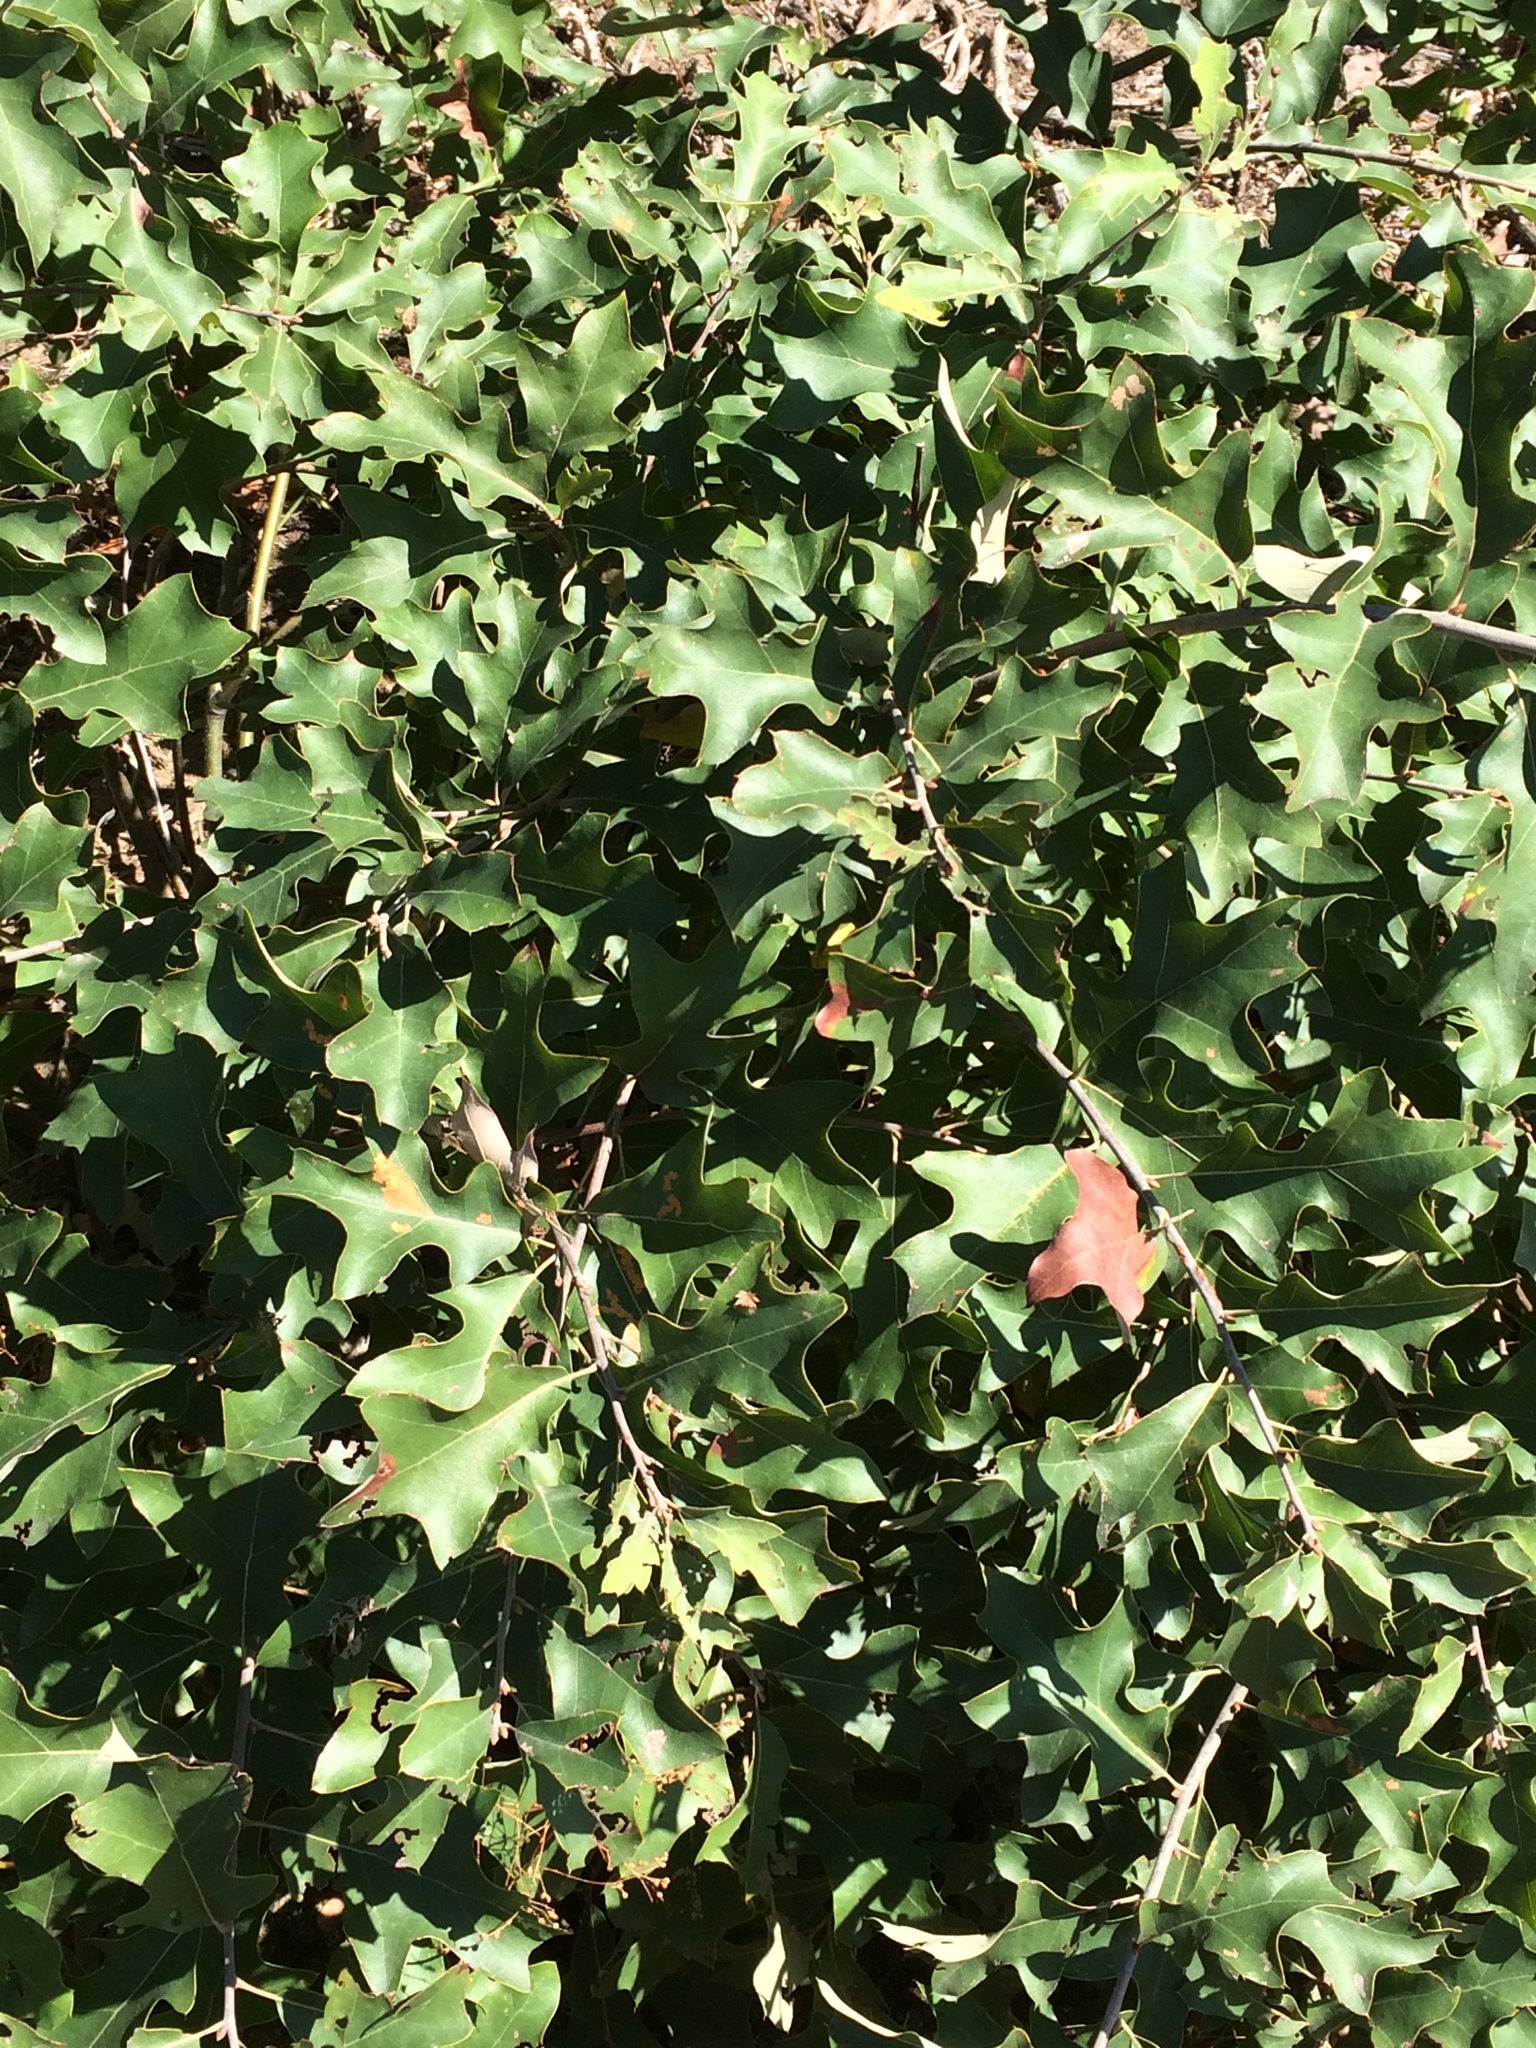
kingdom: Plantae
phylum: Tracheophyta
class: Magnoliopsida
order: Fagales
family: Fagaceae
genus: Quercus
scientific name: Quercus ilicifolia
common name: Bear oak
